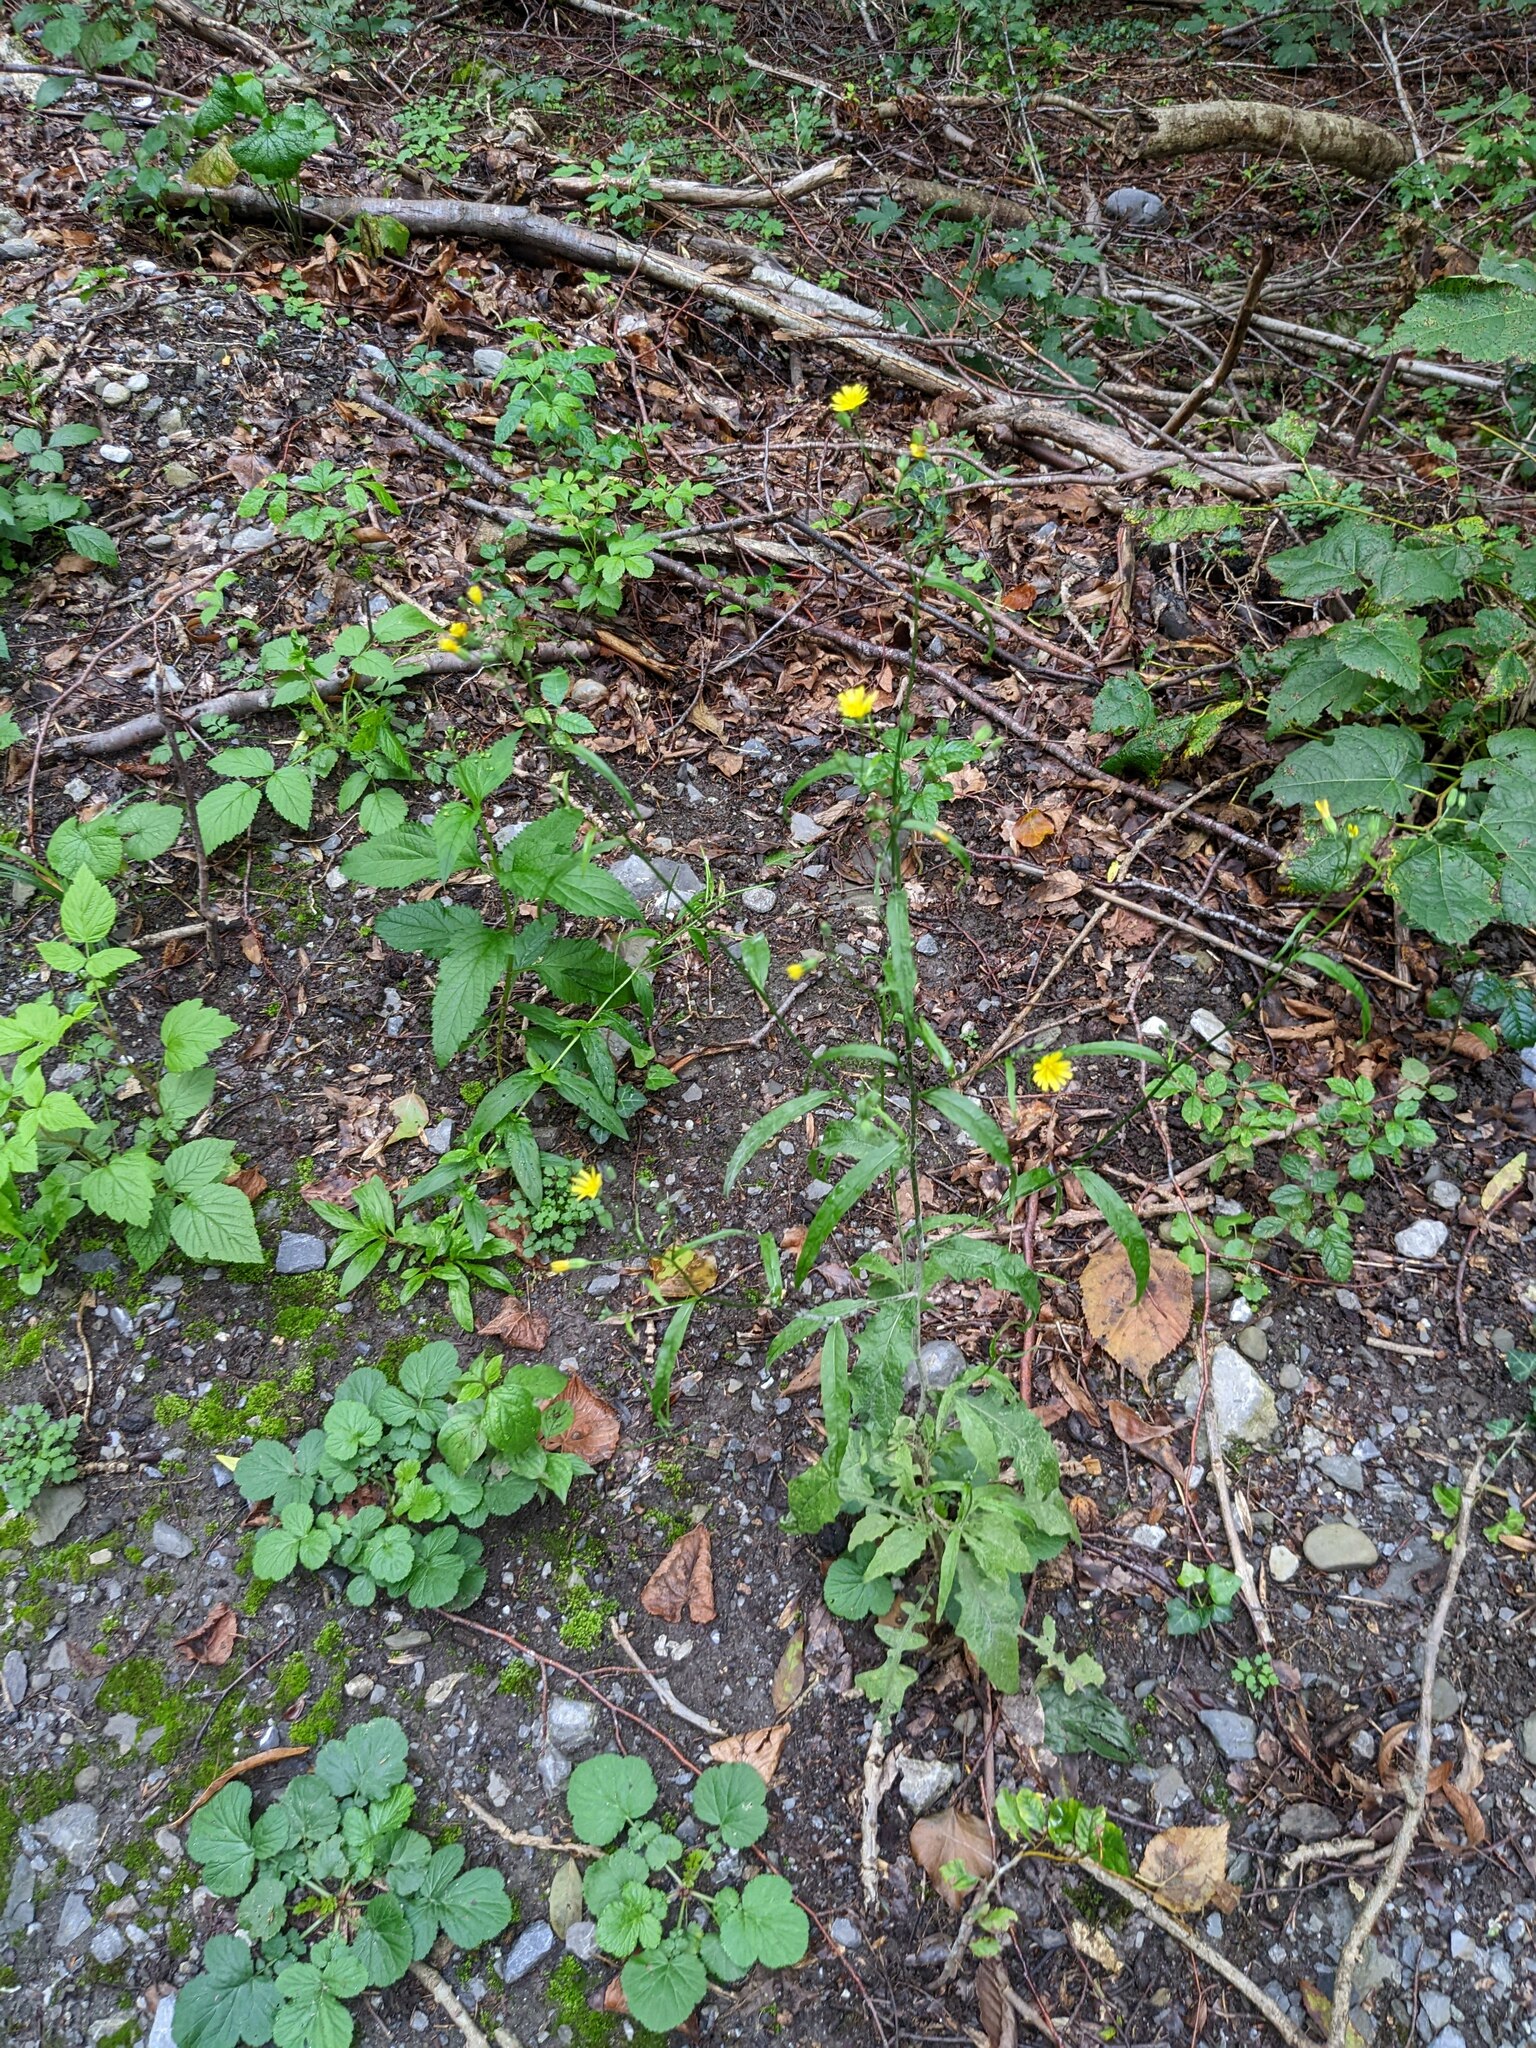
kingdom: Plantae
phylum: Tracheophyta
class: Magnoliopsida
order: Asterales
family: Asteraceae
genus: Lapsana
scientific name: Lapsana communis
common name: Nipplewort
